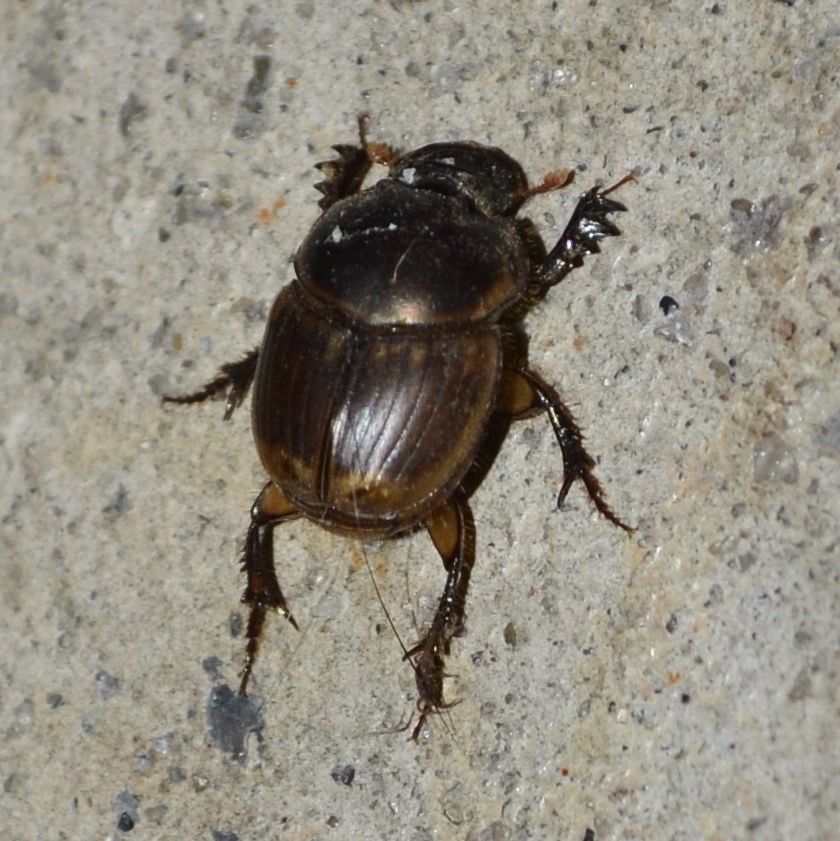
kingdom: Animalia
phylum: Arthropoda
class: Insecta
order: Coleoptera
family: Scarabaeidae
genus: Digitonthophagus
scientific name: Digitonthophagus gazella
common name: Brown dung beetle
